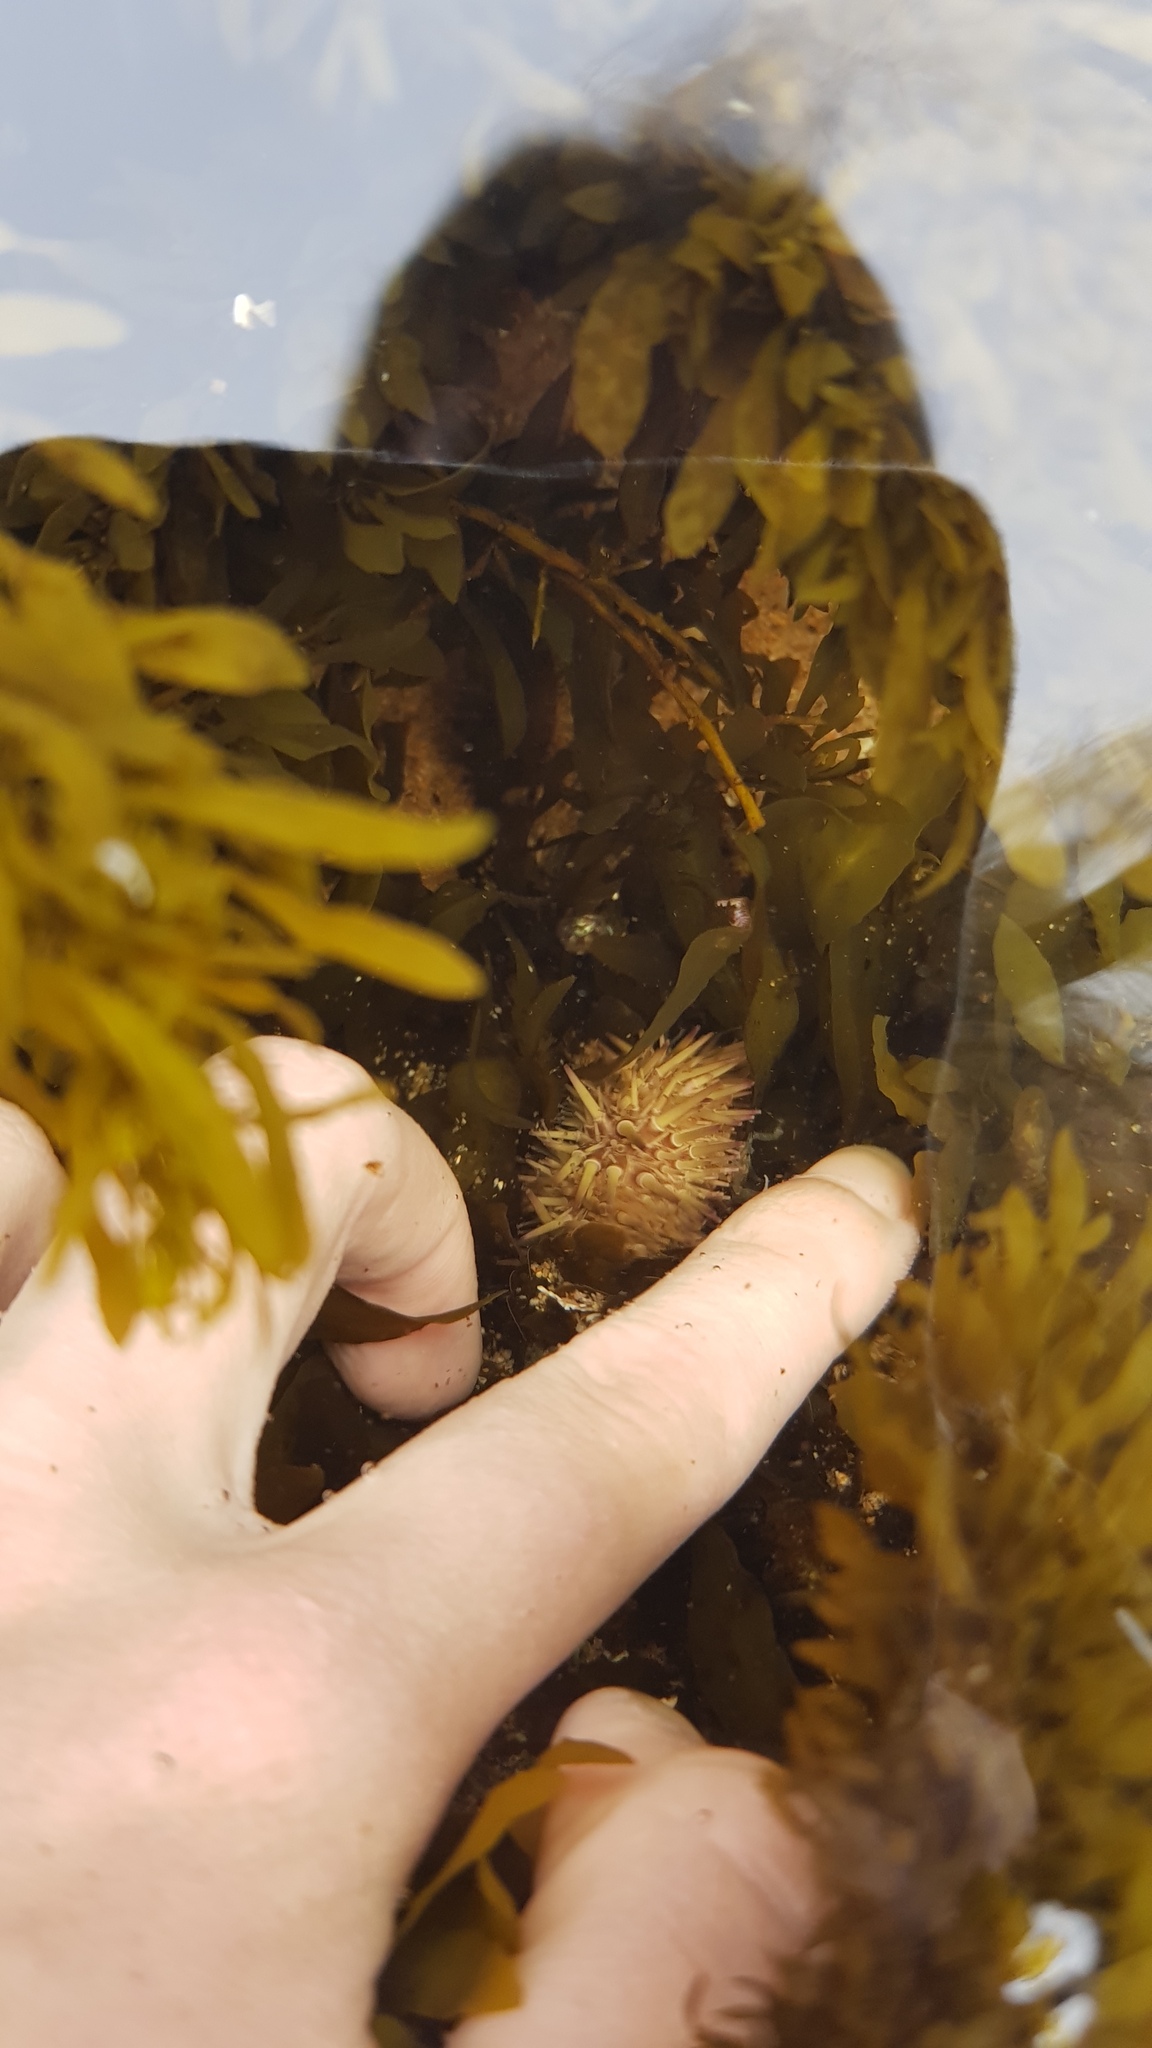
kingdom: Animalia
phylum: Echinodermata
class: Echinoidea
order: Camarodonta
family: Echinometridae
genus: Heliocidaris
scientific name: Heliocidaris erythrogramma
